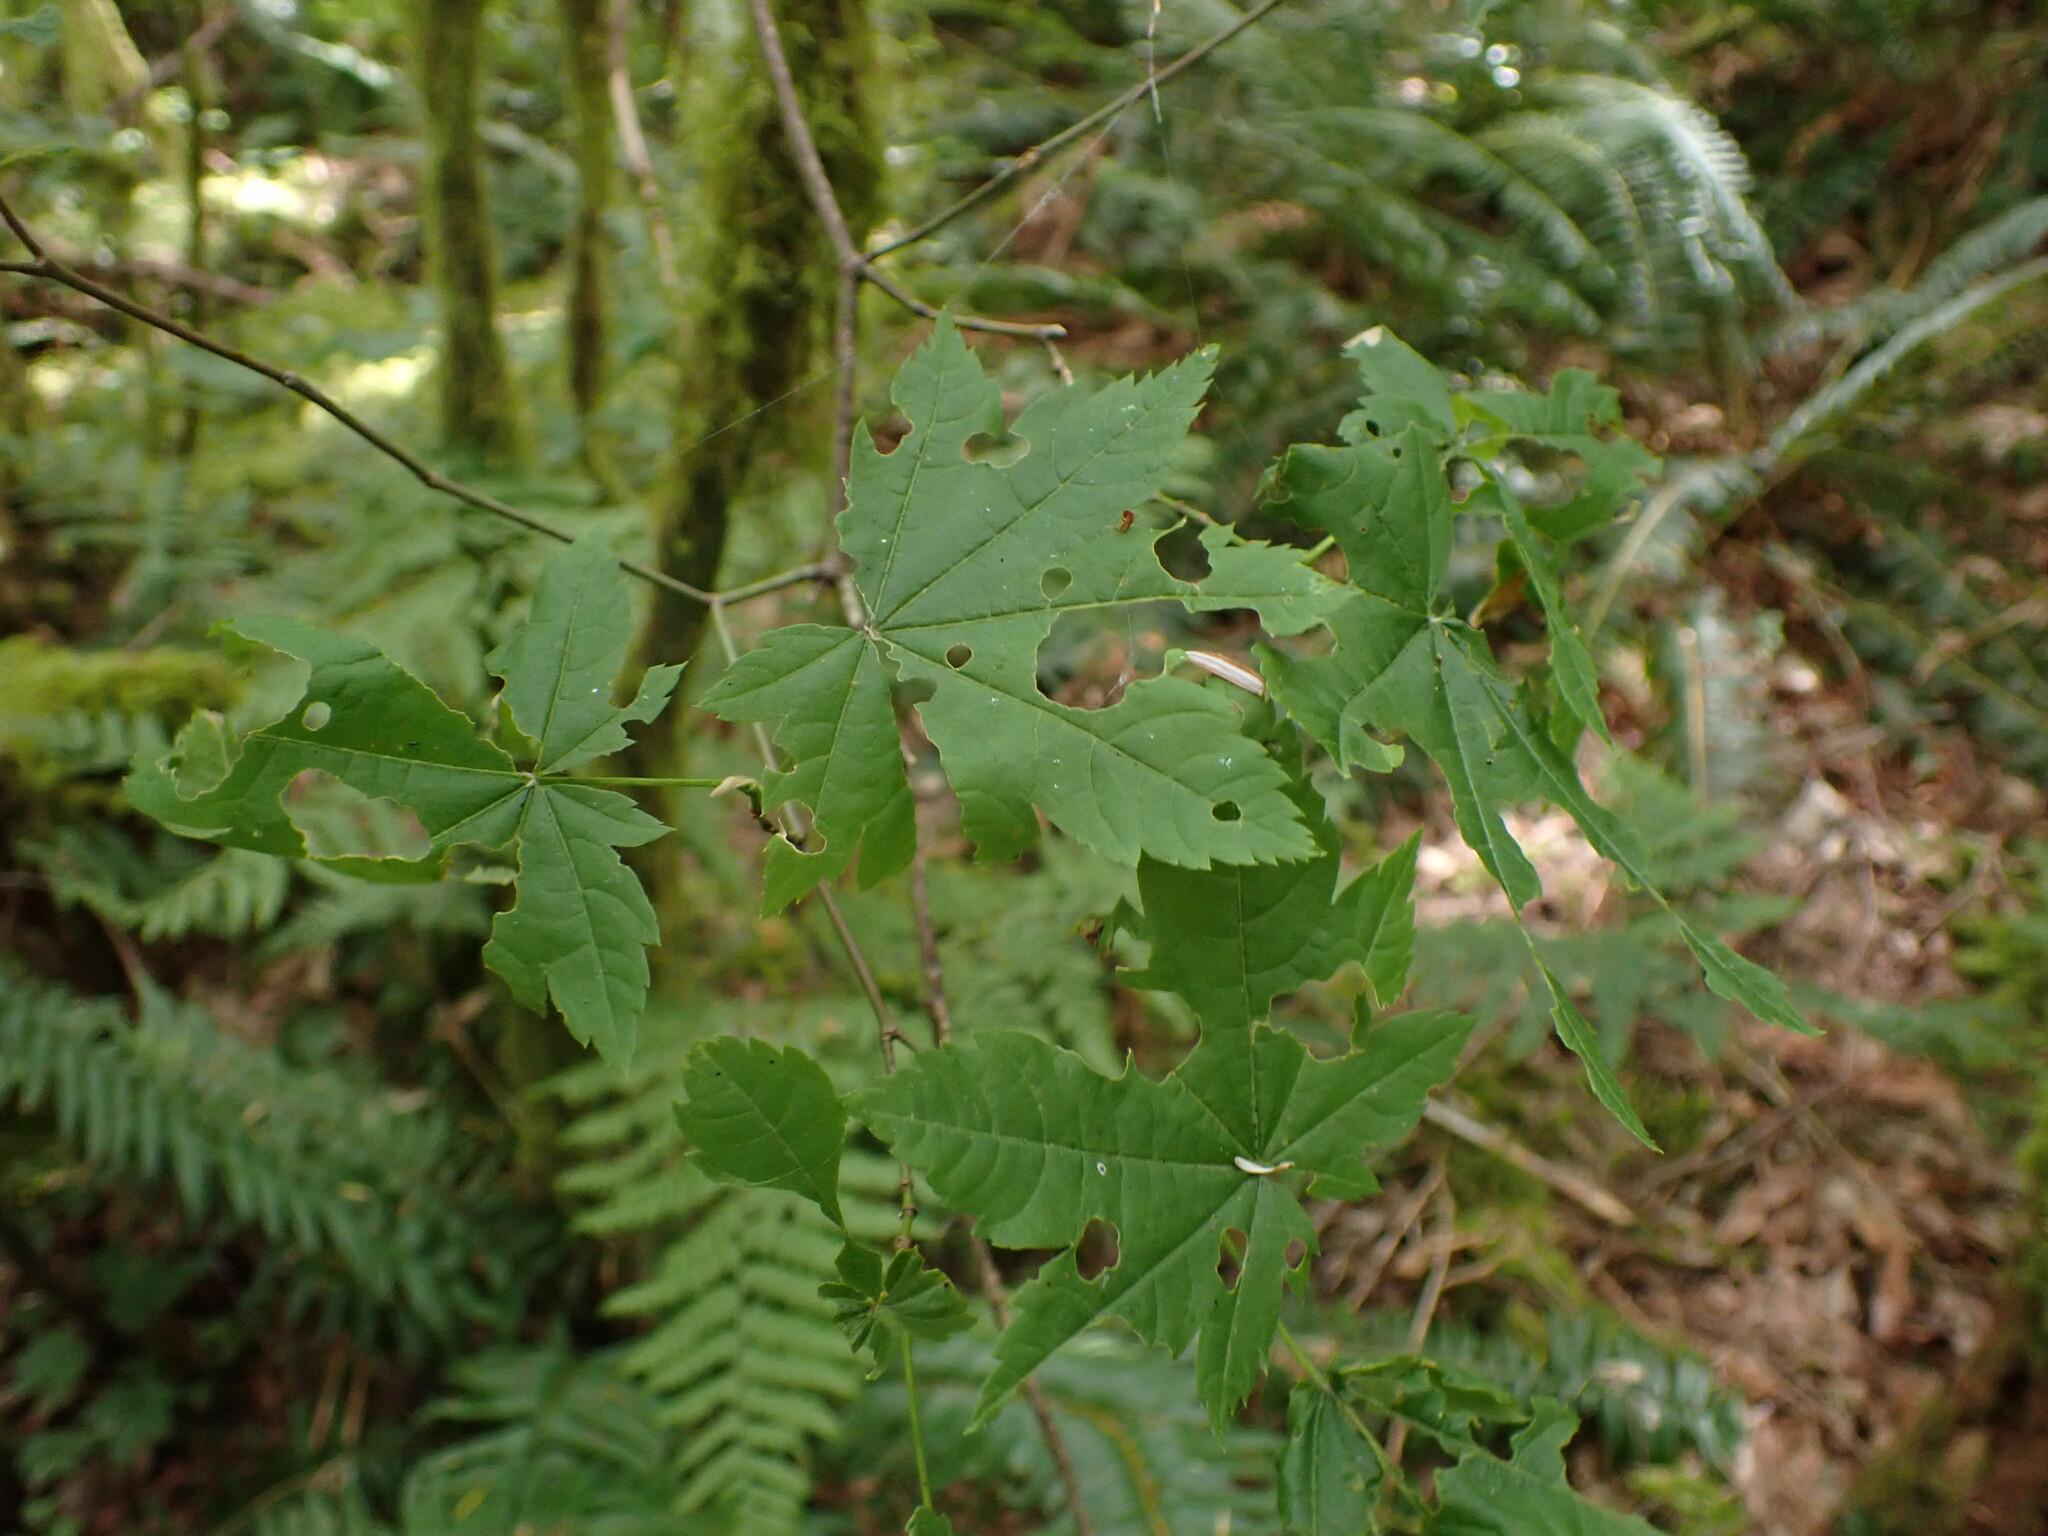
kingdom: Plantae
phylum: Tracheophyta
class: Magnoliopsida
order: Sapindales
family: Sapindaceae
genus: Acer
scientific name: Acer circinatum
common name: Vine maple
